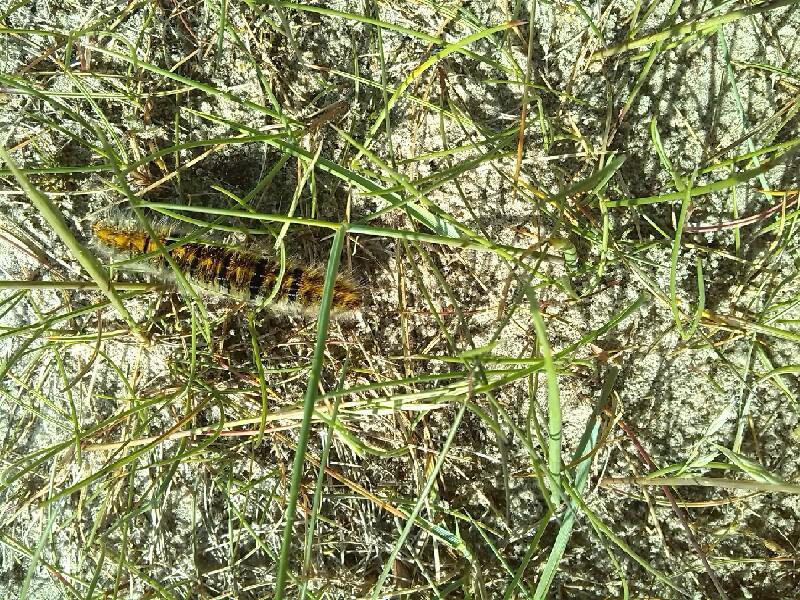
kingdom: Animalia
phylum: Arthropoda
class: Insecta
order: Lepidoptera
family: Lasiocampidae
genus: Lasiocampa
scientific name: Lasiocampa trifolii
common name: Grass eggar
